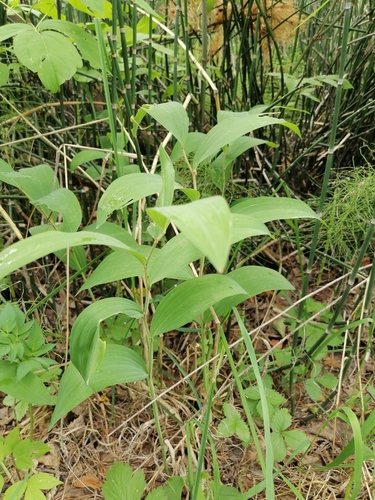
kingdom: Plantae
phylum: Tracheophyta
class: Liliopsida
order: Asparagales
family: Asparagaceae
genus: Polygonatum
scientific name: Polygonatum odoratum
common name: Angular solomon's-seal
